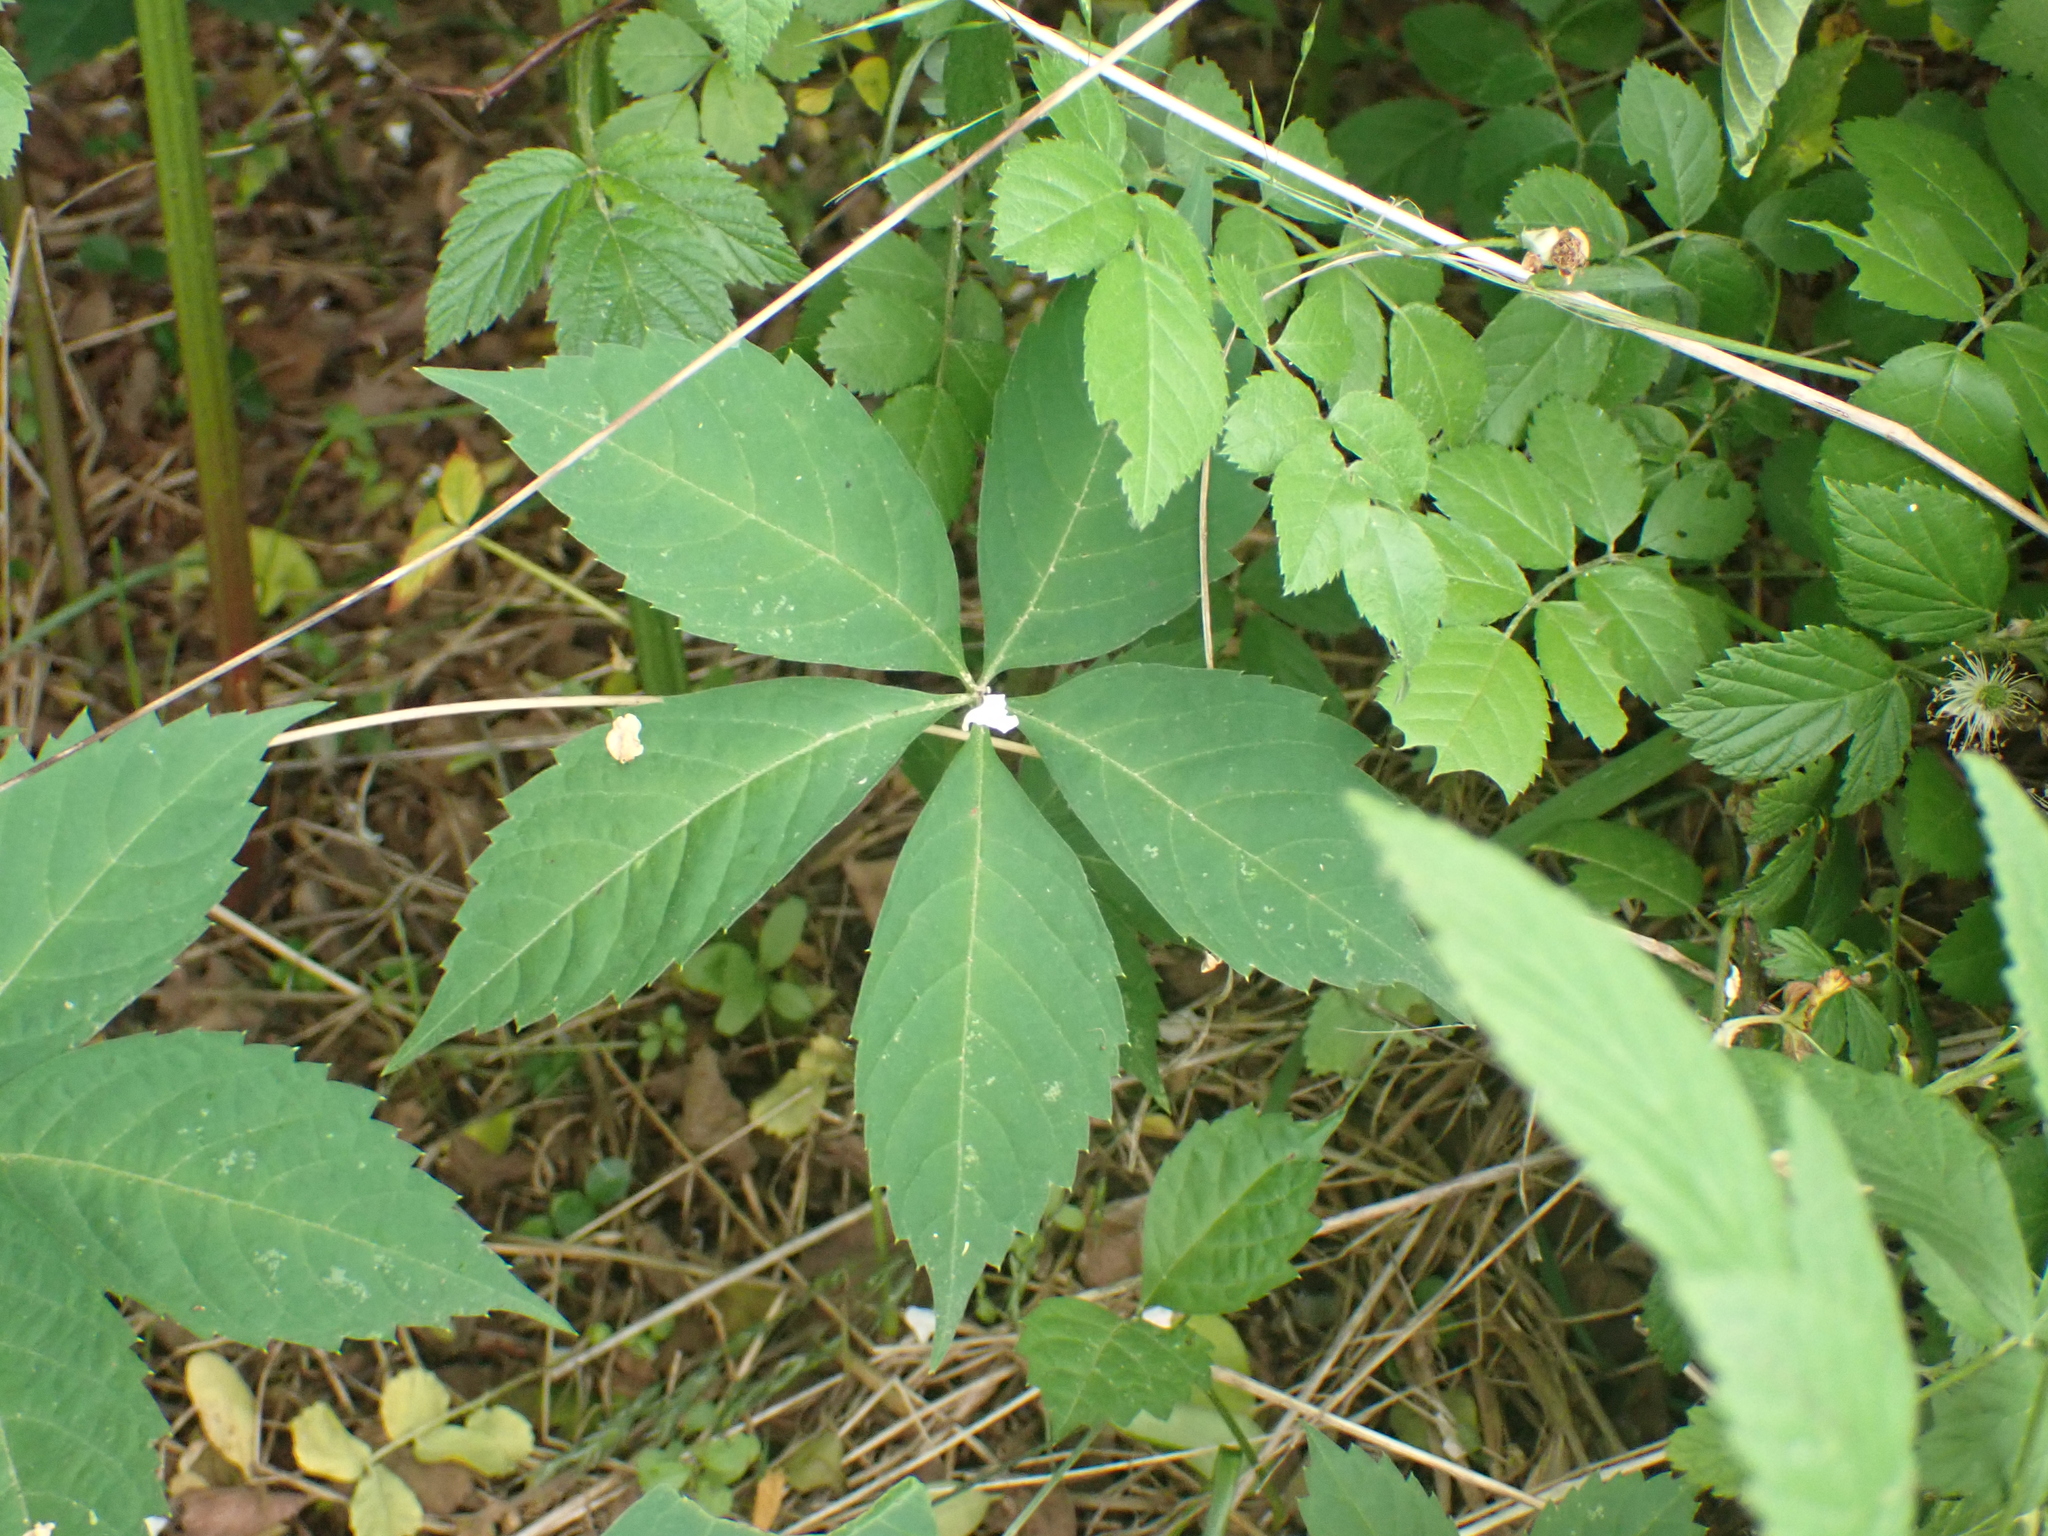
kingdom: Plantae
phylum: Tracheophyta
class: Magnoliopsida
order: Vitales
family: Vitaceae
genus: Parthenocissus
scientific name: Parthenocissus quinquefolia
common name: Virginia-creeper
